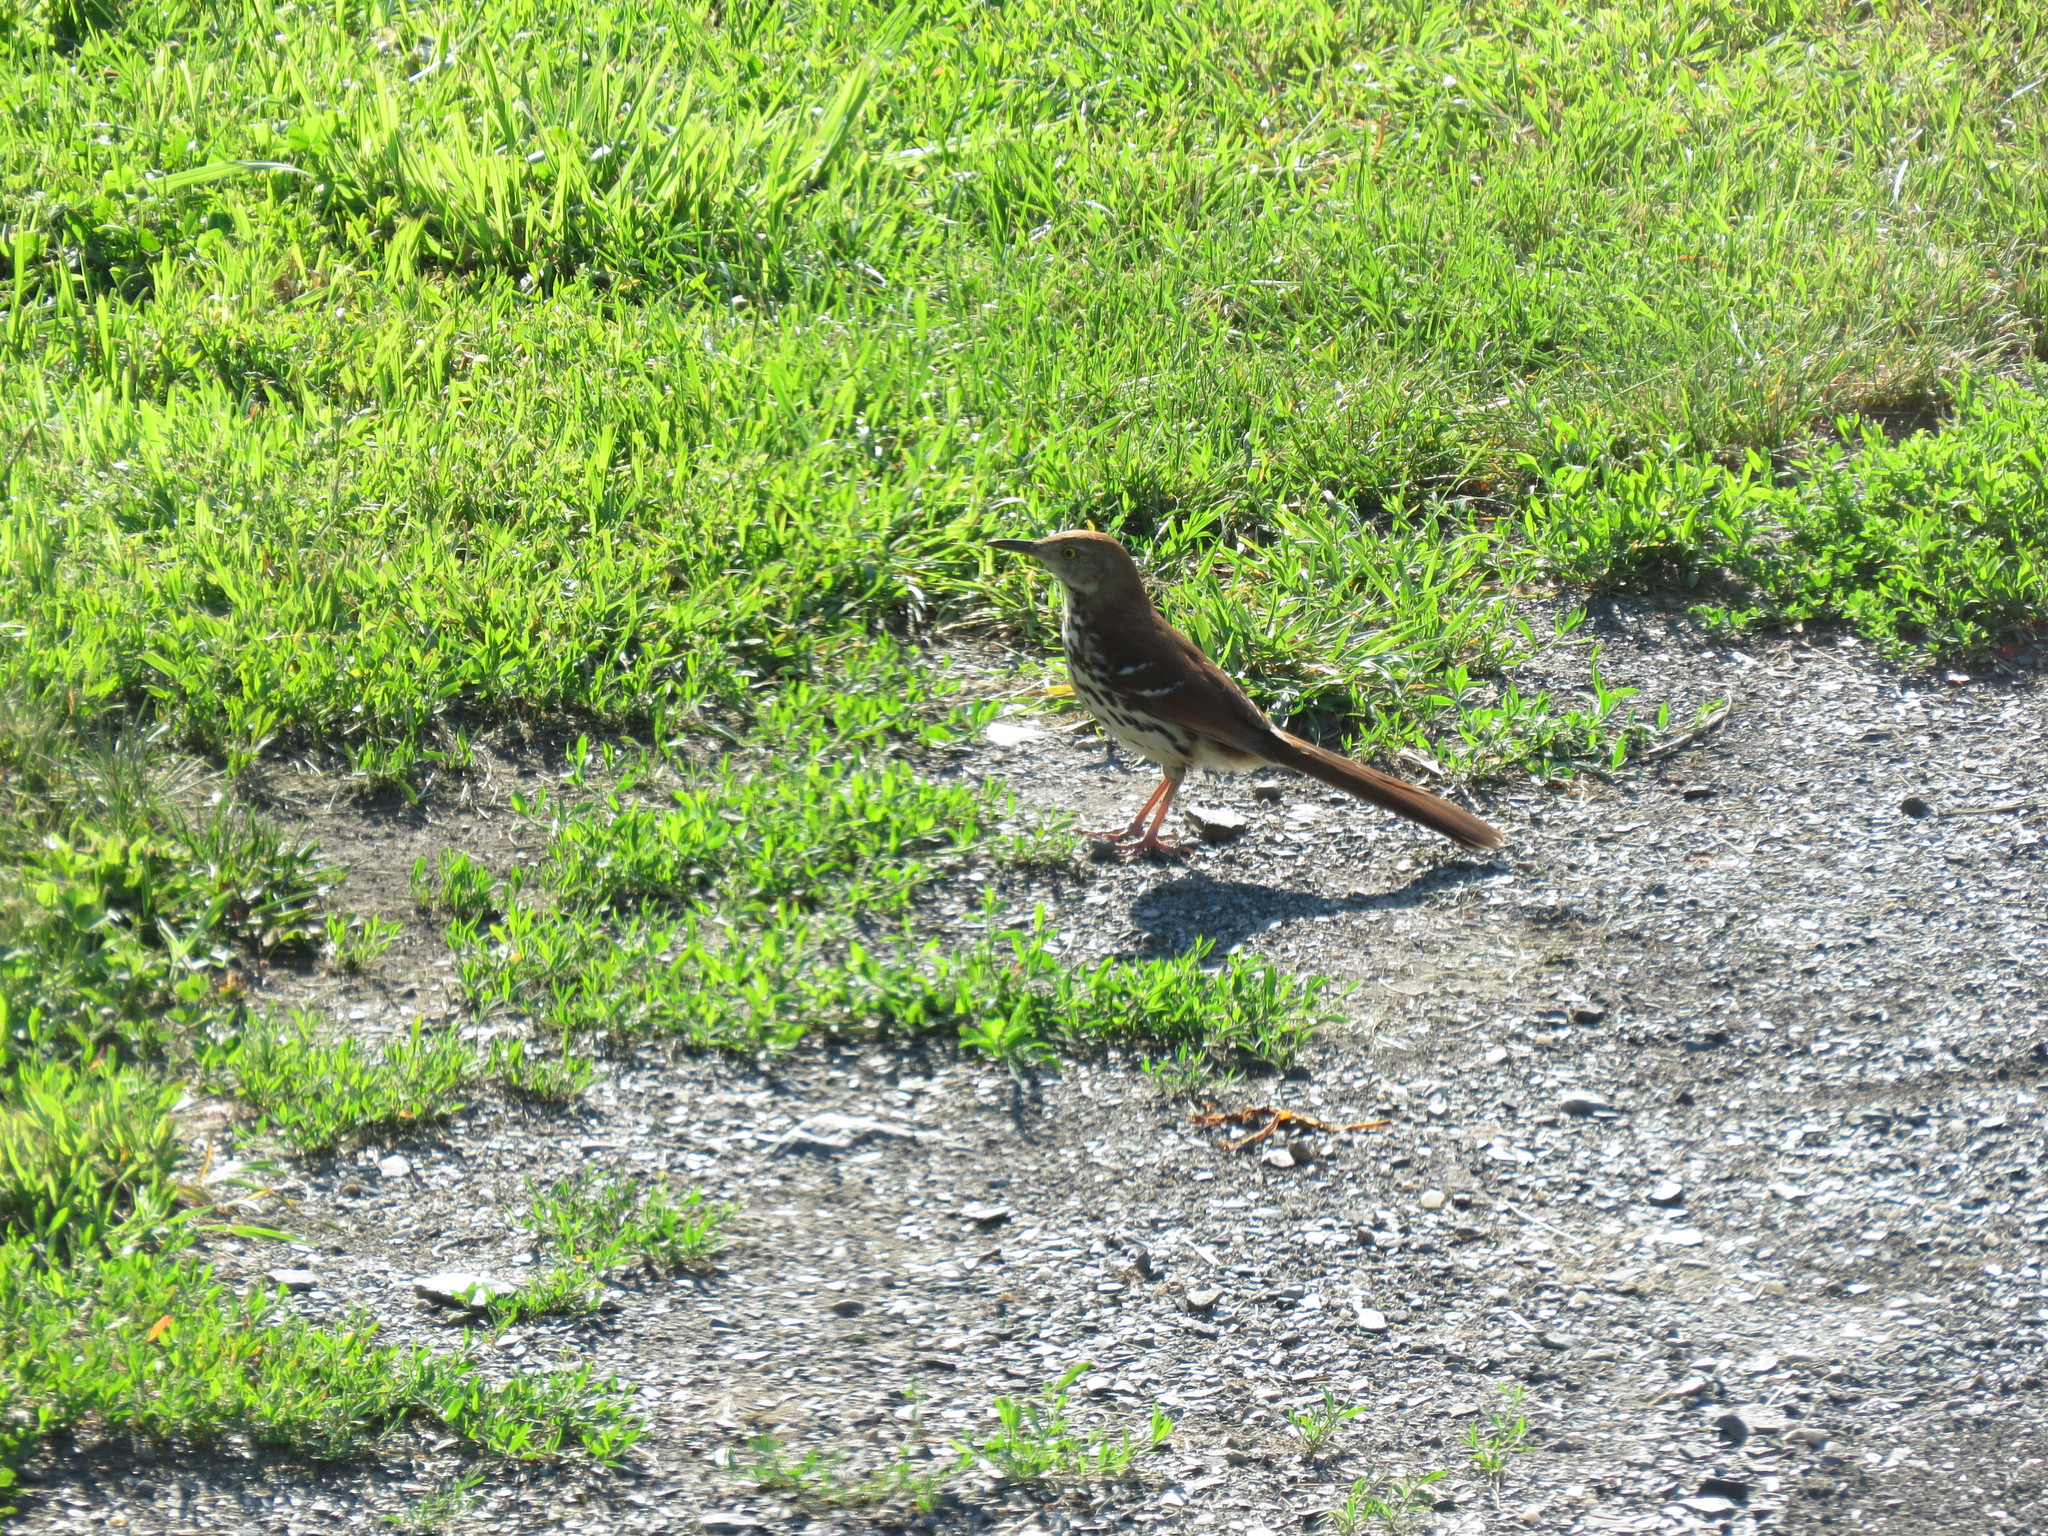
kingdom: Animalia
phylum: Chordata
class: Aves
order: Passeriformes
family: Mimidae
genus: Toxostoma
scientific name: Toxostoma rufum
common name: Brown thrasher
